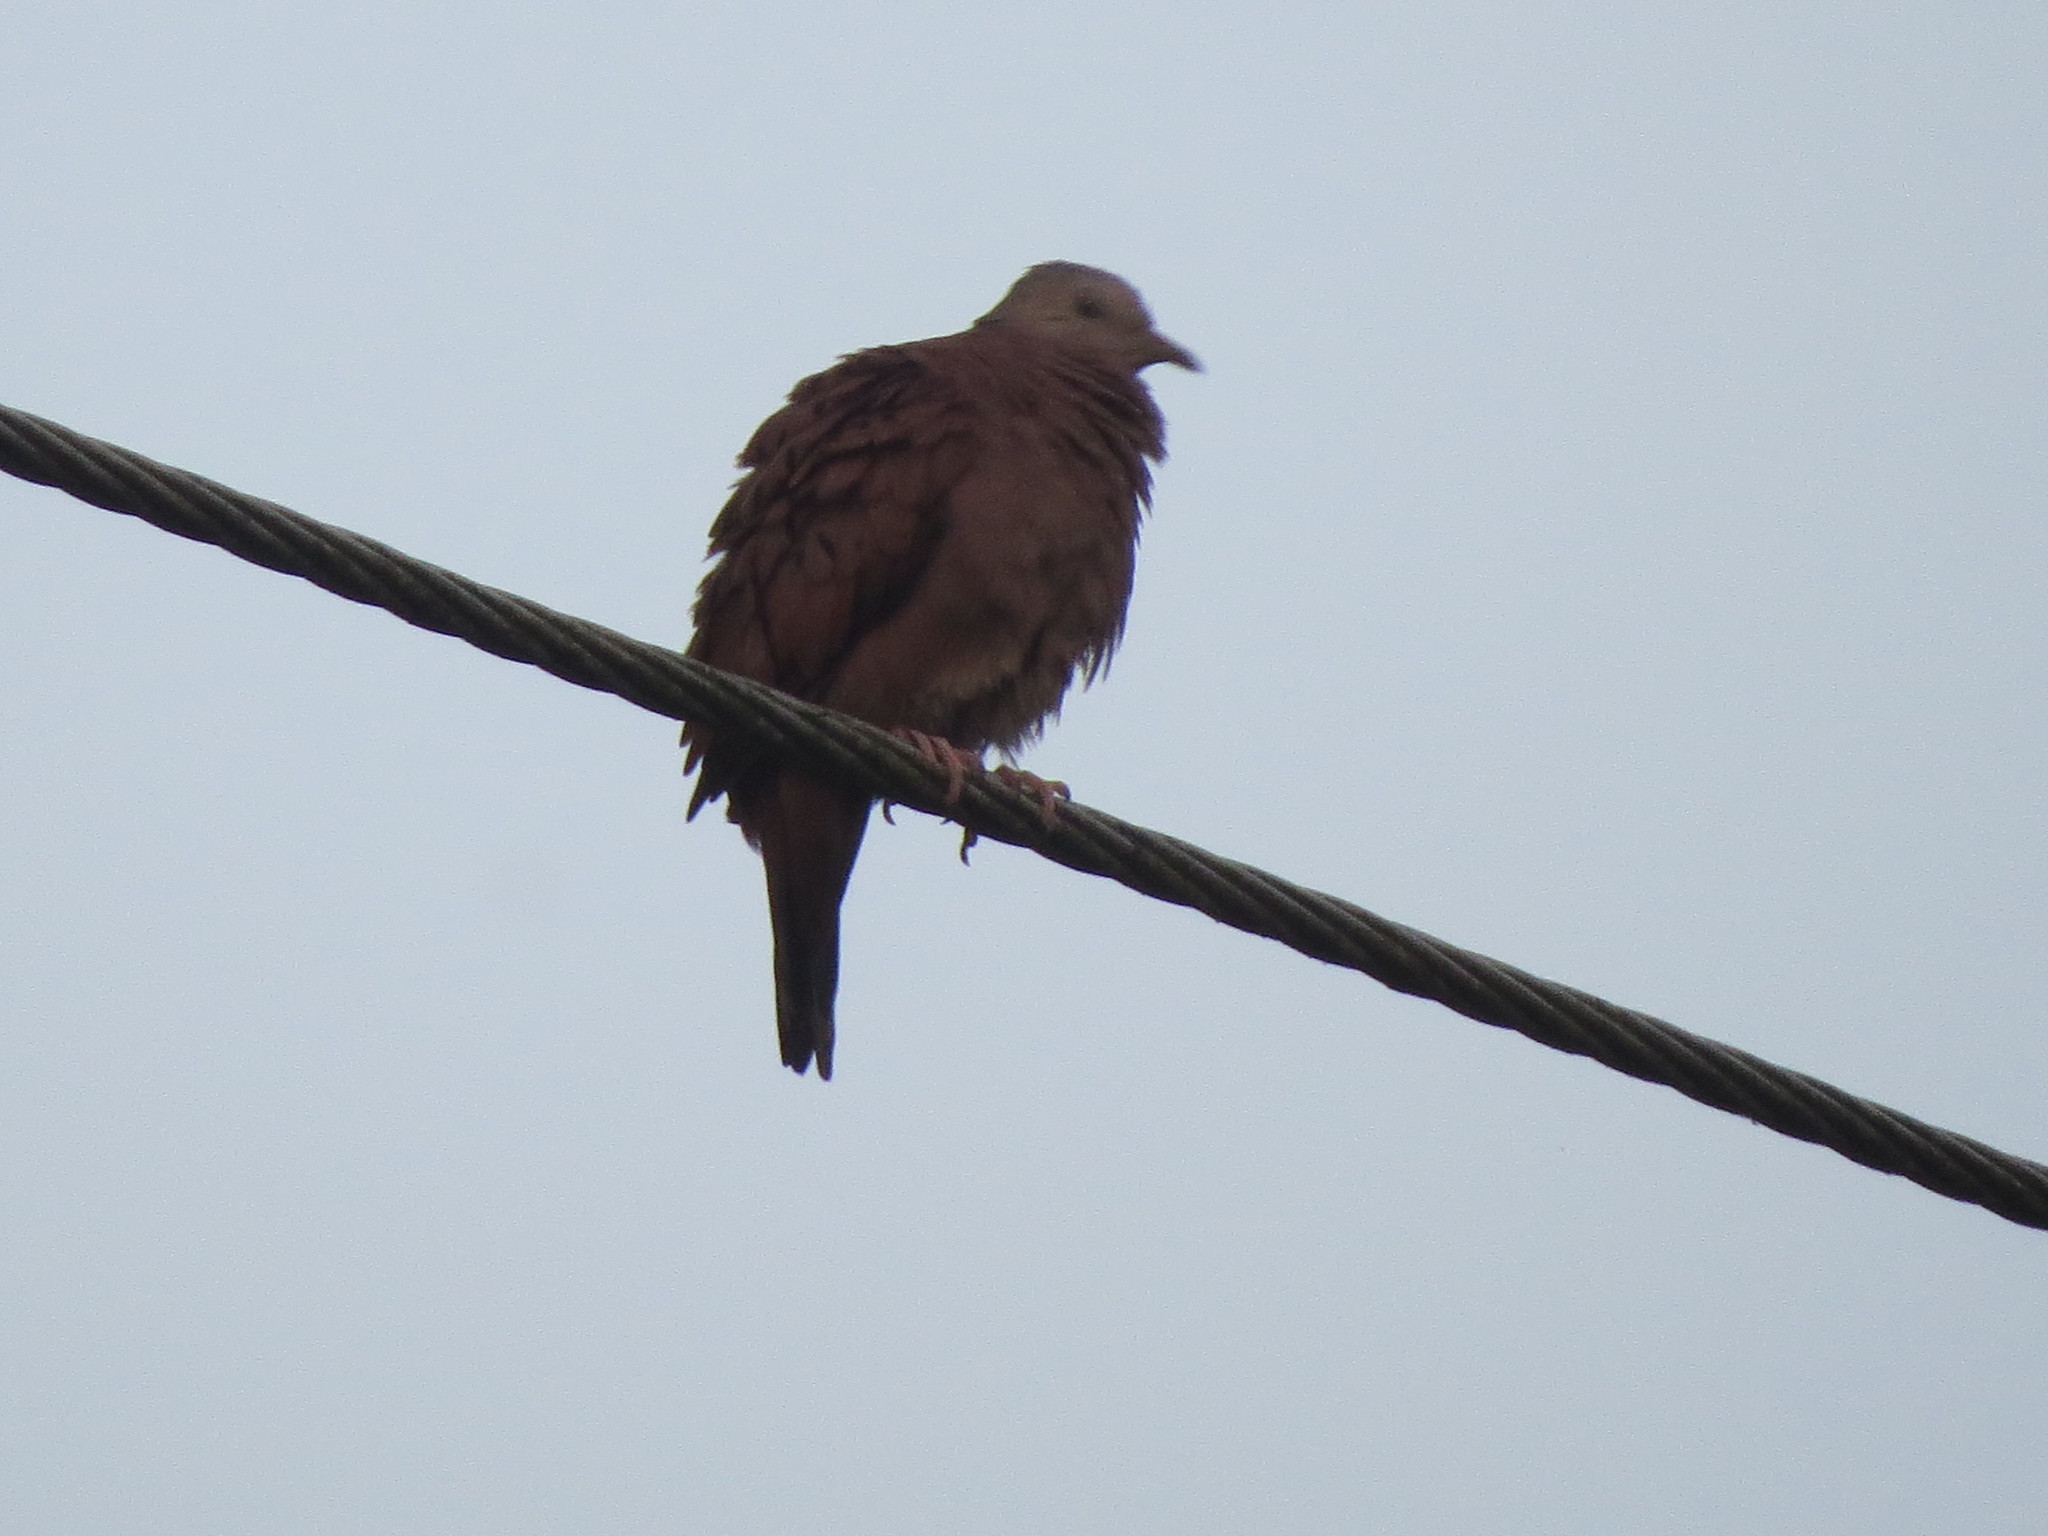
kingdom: Animalia
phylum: Chordata
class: Aves
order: Columbiformes
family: Columbidae
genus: Columbina
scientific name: Columbina talpacoti
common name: Ruddy ground dove
